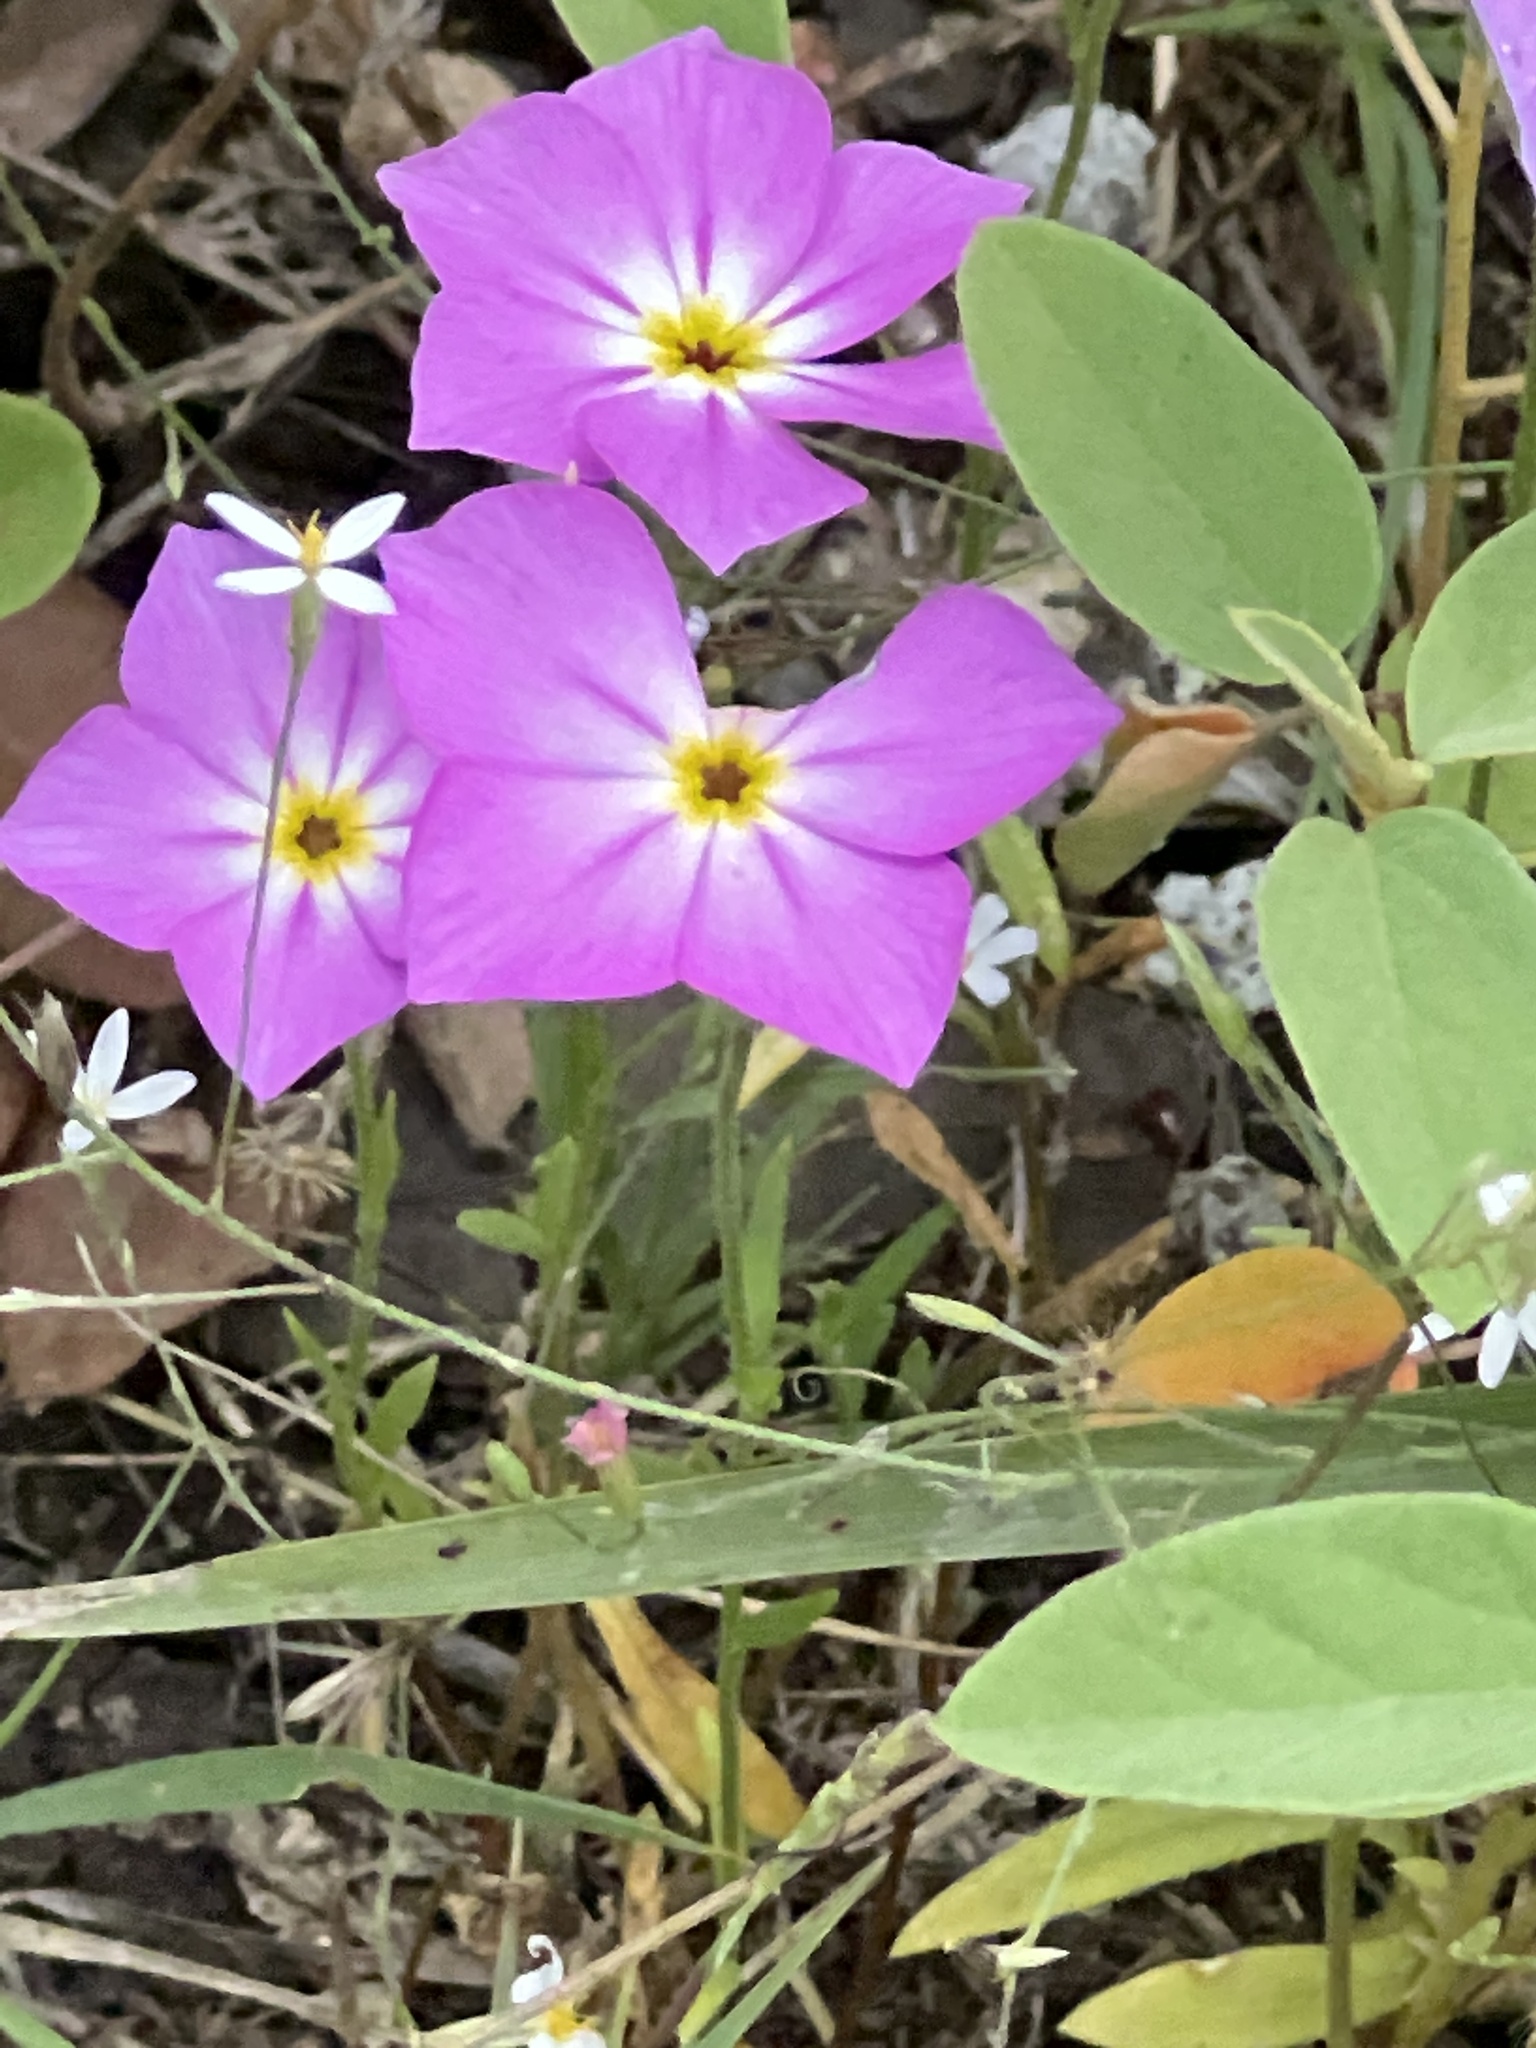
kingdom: Plantae
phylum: Tracheophyta
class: Magnoliopsida
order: Ericales
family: Polemoniaceae
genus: Phlox
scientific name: Phlox roemeriana
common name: Roemer's phlox
